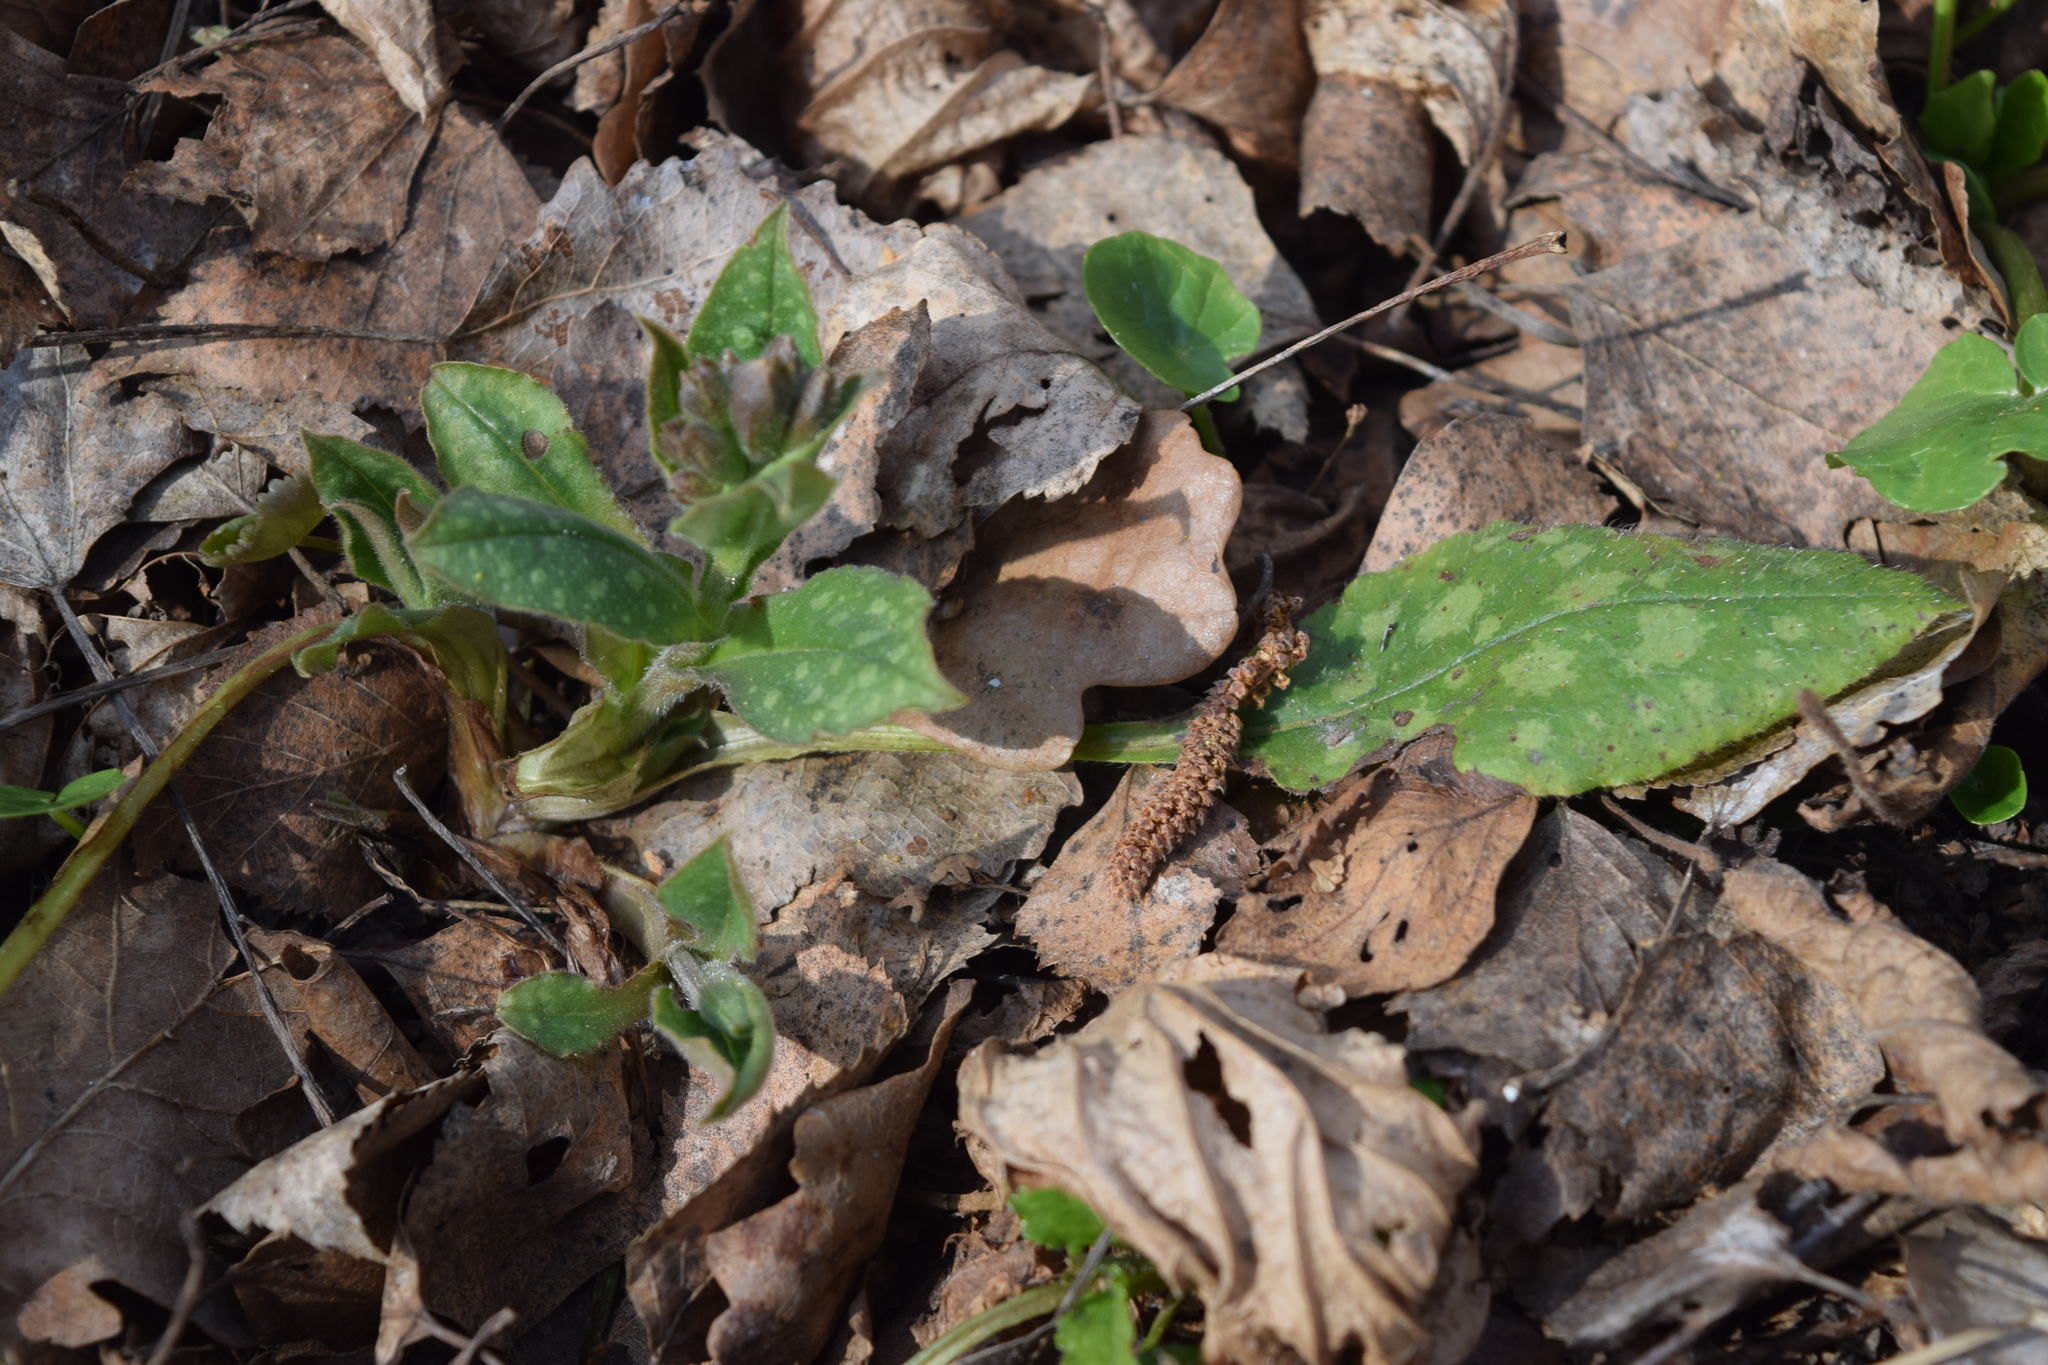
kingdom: Plantae
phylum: Tracheophyta
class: Magnoliopsida
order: Boraginales
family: Boraginaceae
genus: Pulmonaria
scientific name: Pulmonaria obscura
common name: Suffolk lungwort
